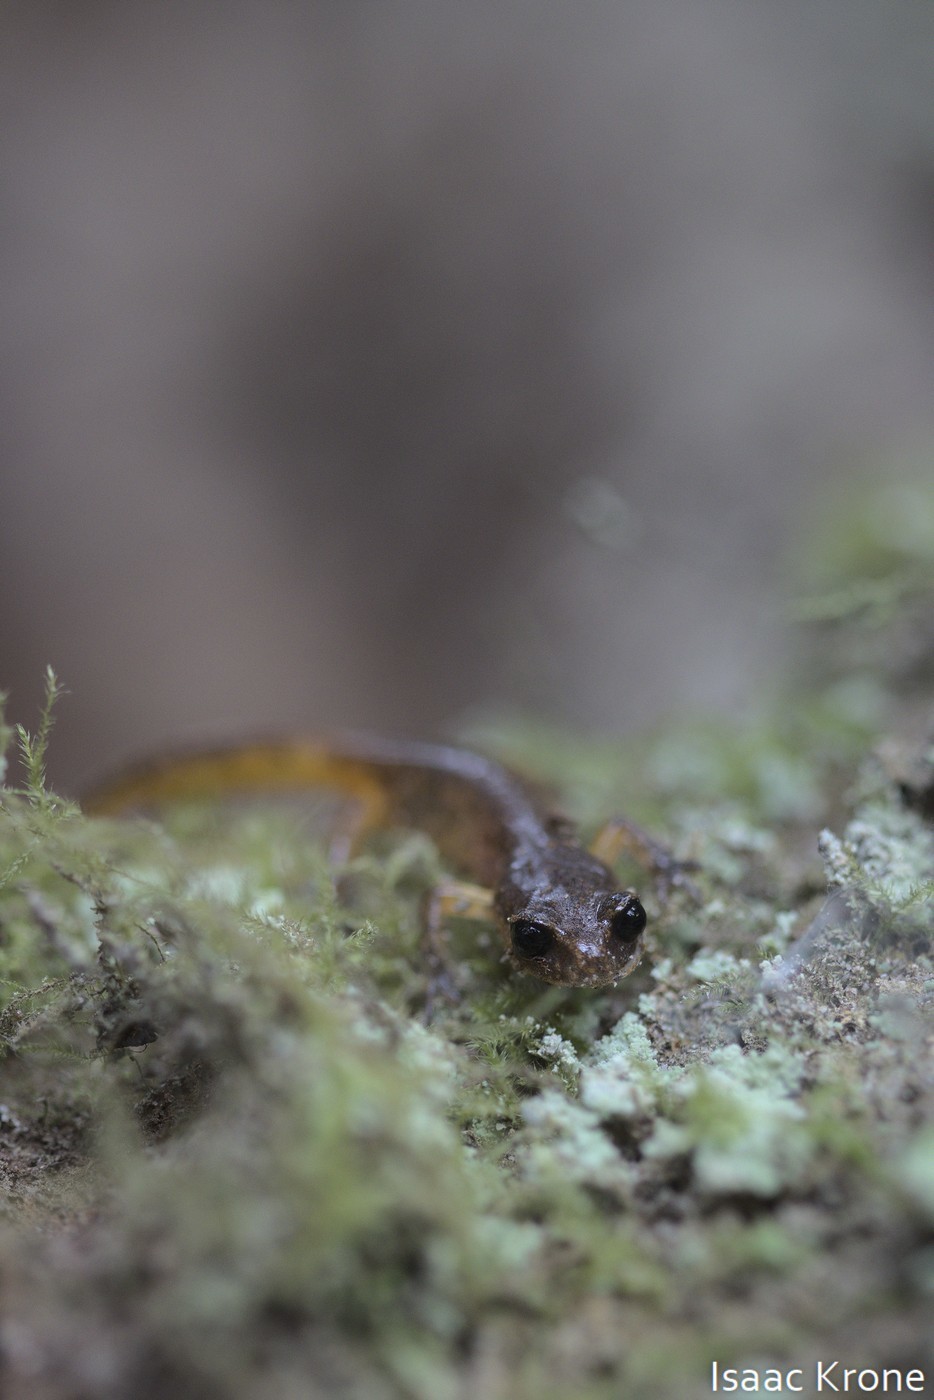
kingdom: Animalia
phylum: Chordata
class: Amphibia
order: Caudata
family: Plethodontidae
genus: Ensatina
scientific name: Ensatina eschscholtzii
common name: Ensatina
